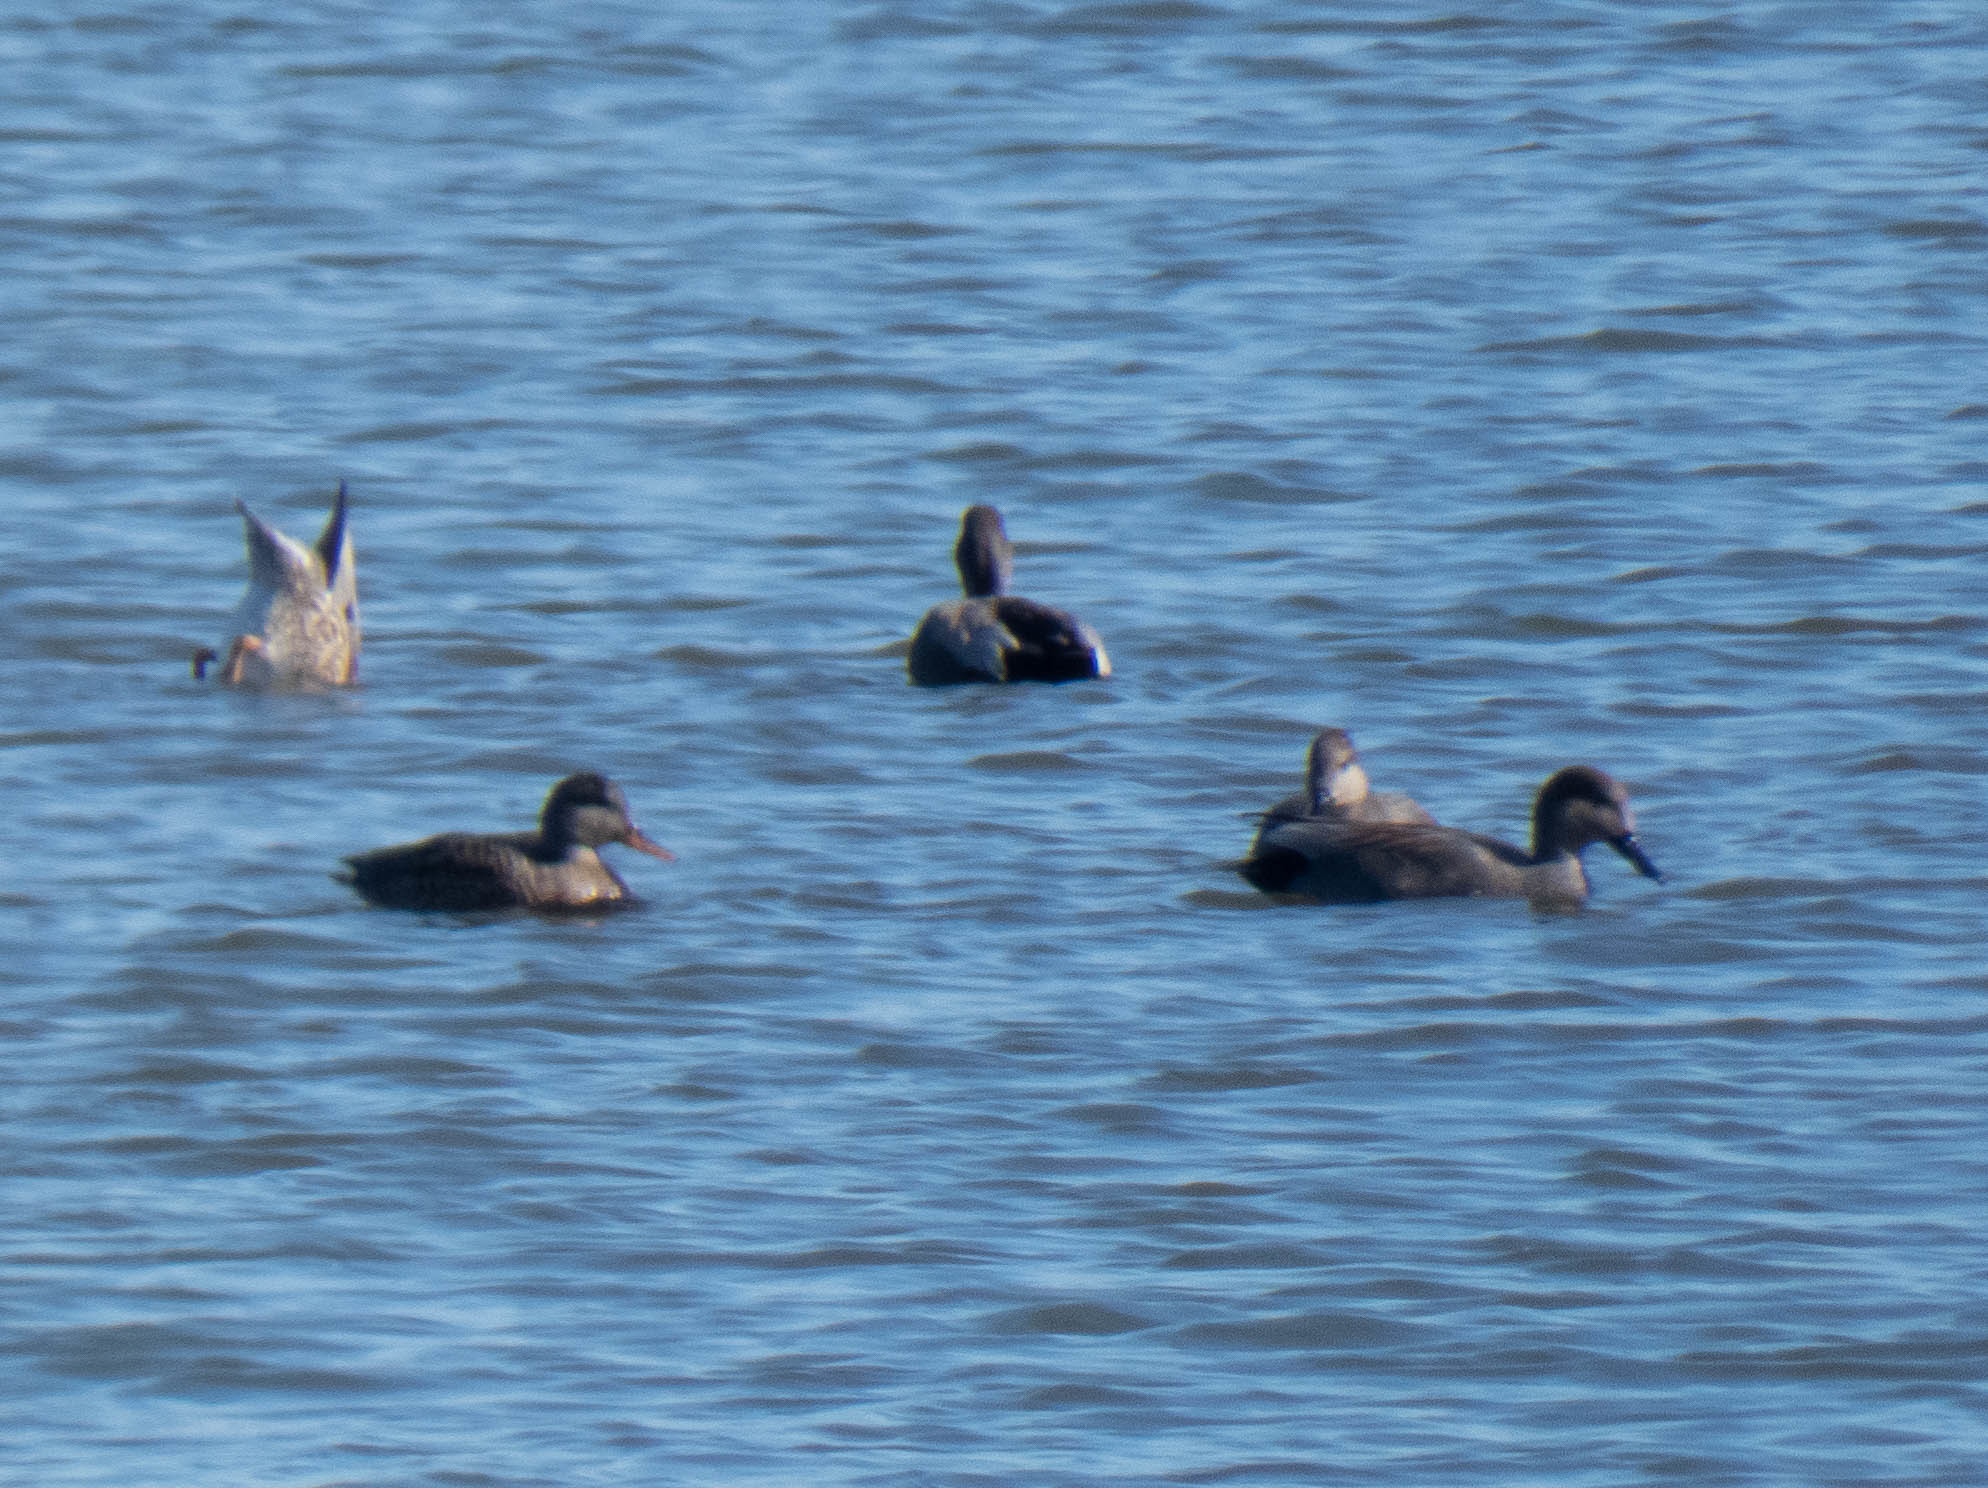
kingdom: Animalia
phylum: Chordata
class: Aves
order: Anseriformes
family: Anatidae
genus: Mareca
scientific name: Mareca strepera
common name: Gadwall
